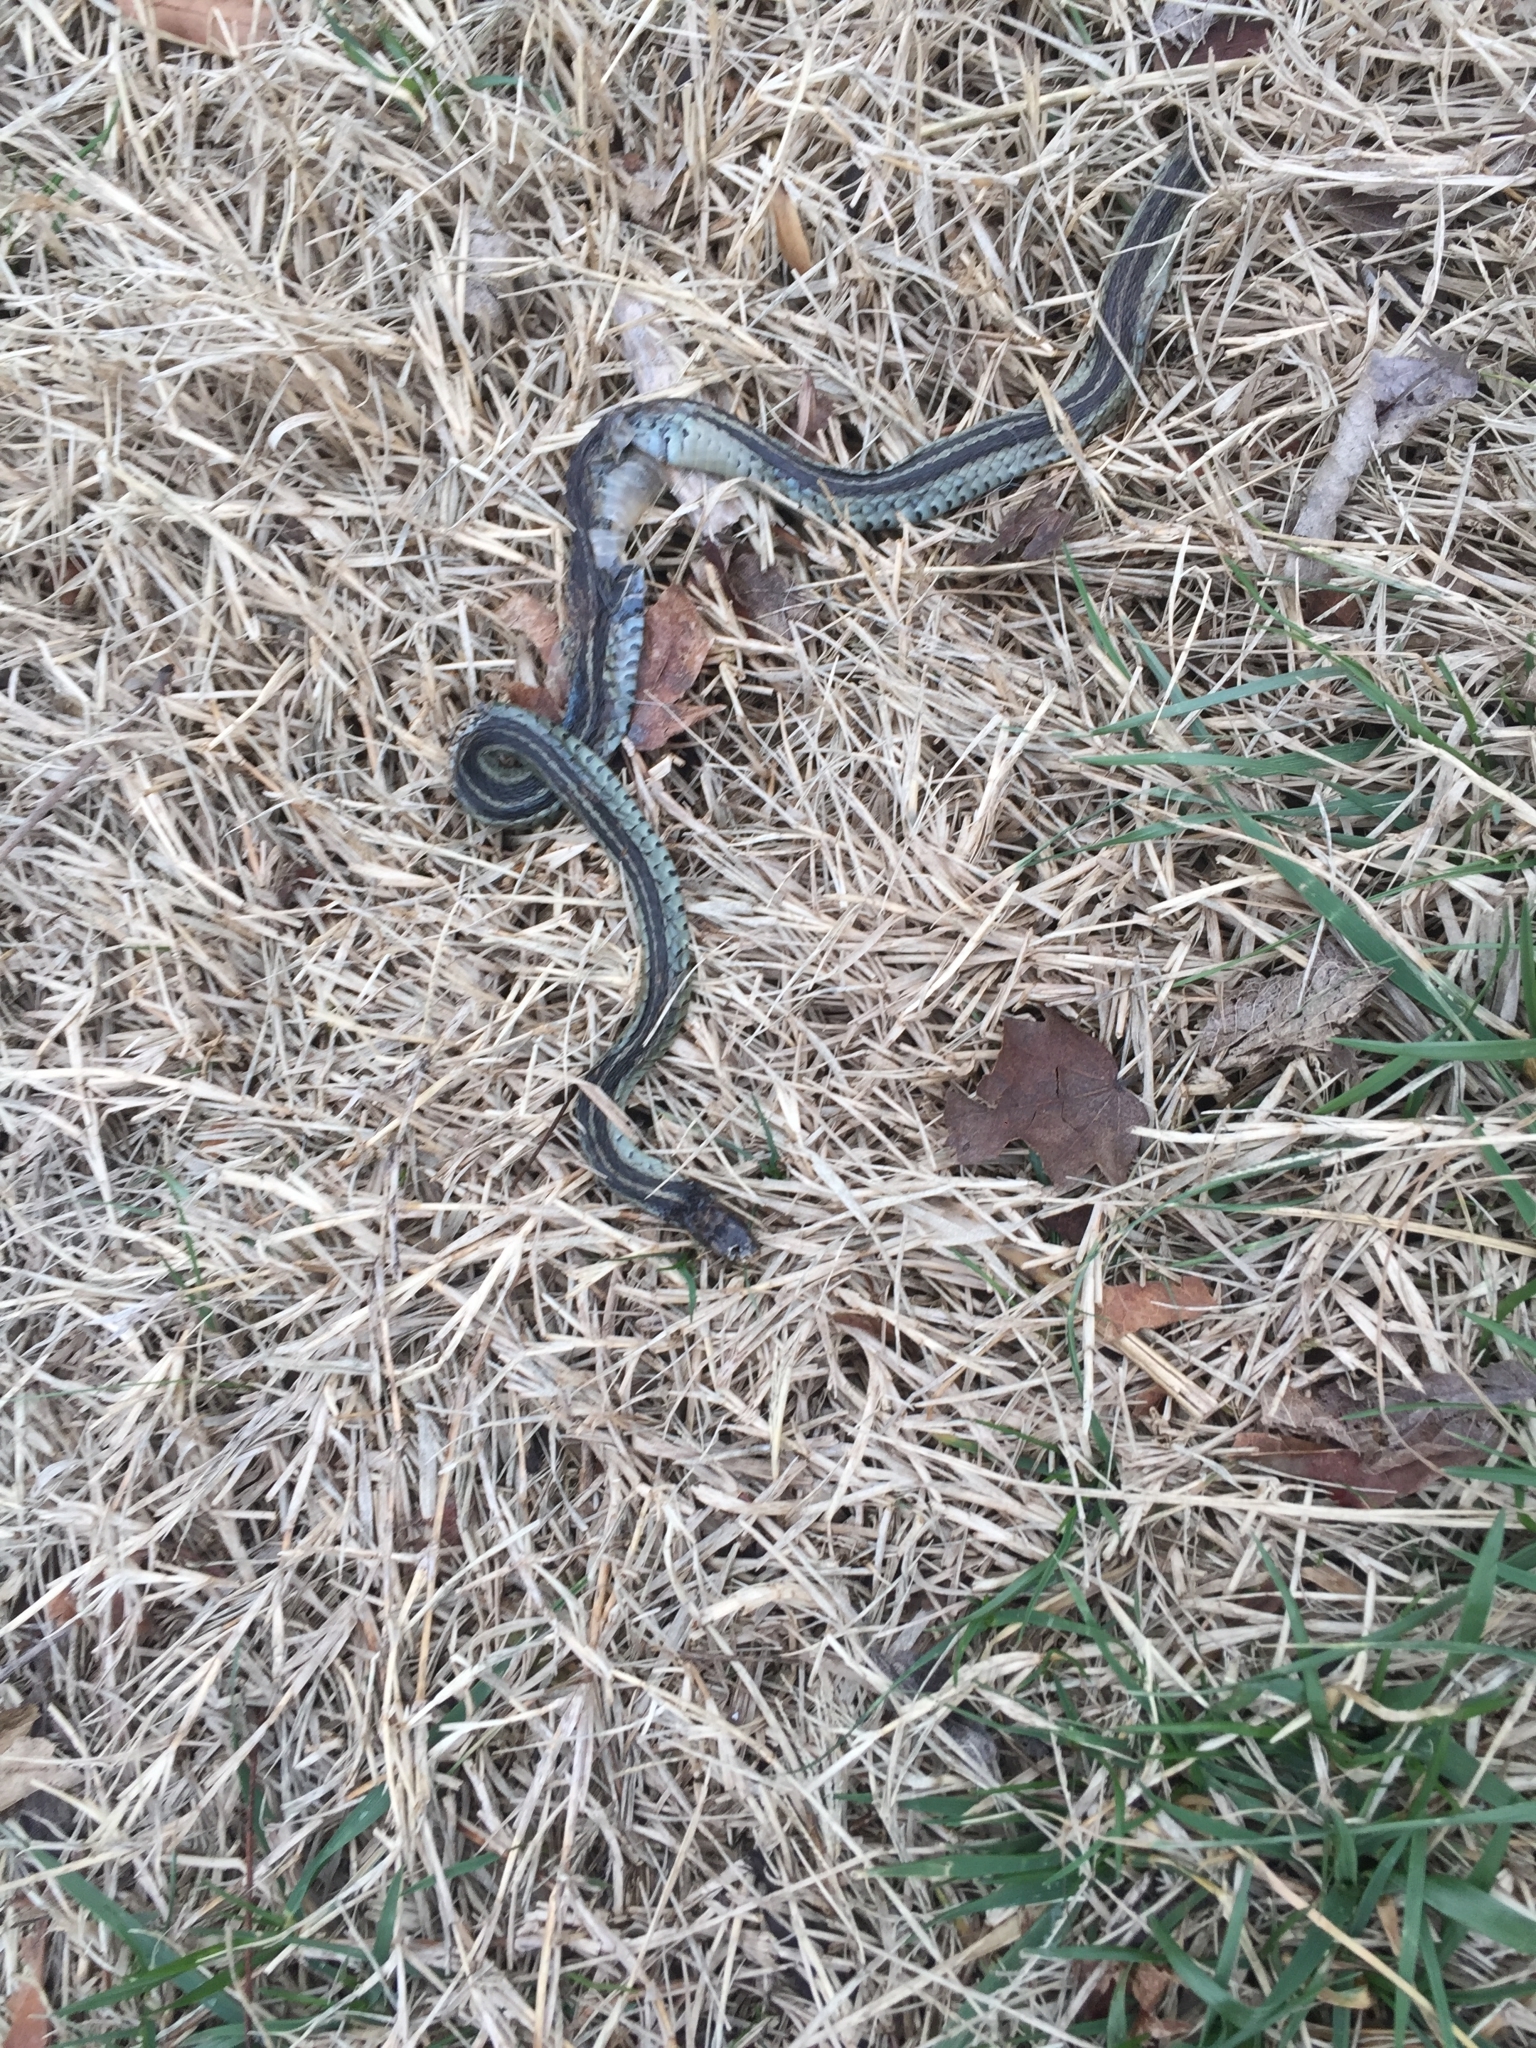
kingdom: Animalia
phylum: Chordata
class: Squamata
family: Colubridae
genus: Thamnophis
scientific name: Thamnophis sirtalis
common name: Common garter snake
